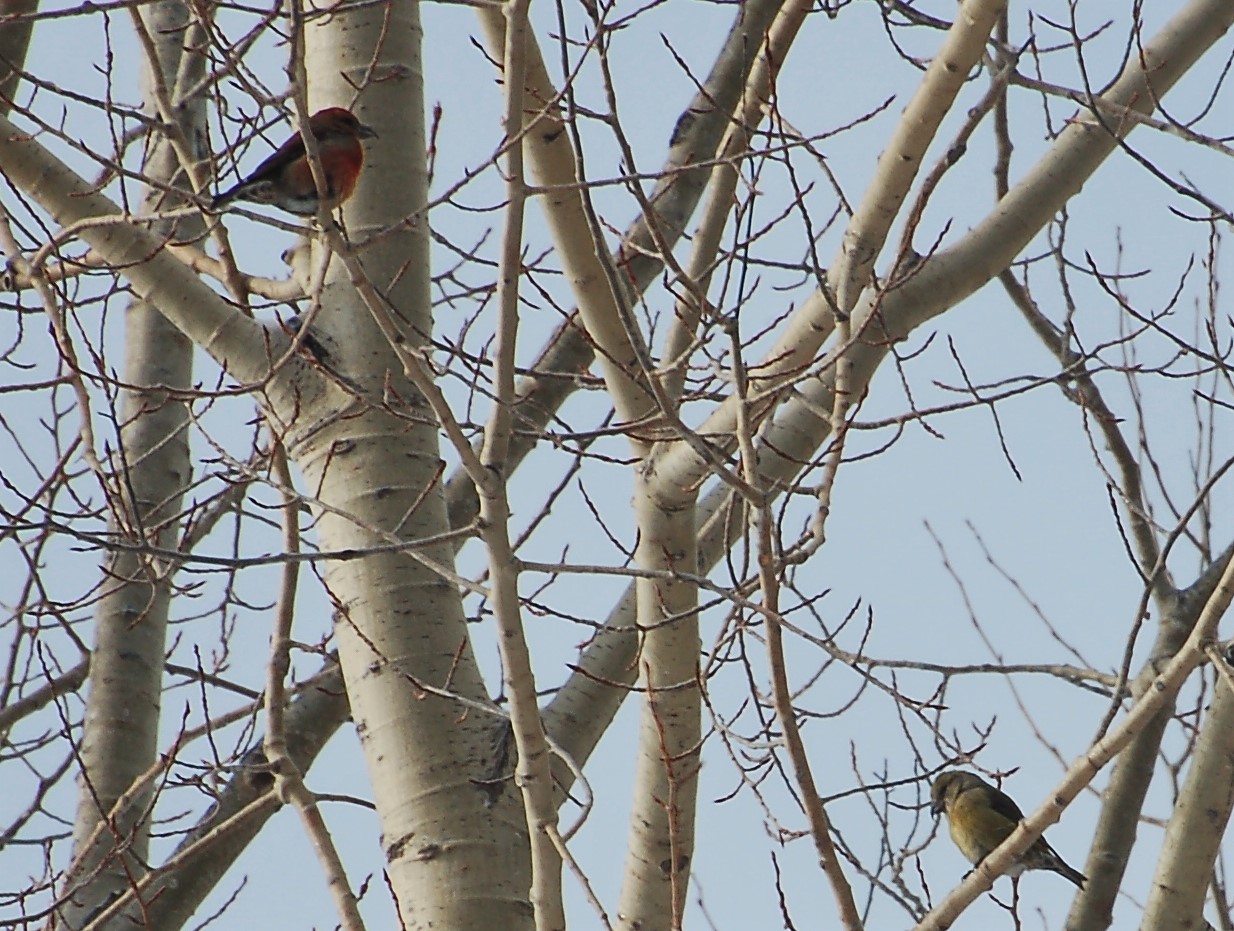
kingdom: Animalia
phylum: Chordata
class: Aves
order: Passeriformes
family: Fringillidae
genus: Loxia
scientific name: Loxia curvirostra
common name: Red crossbill
